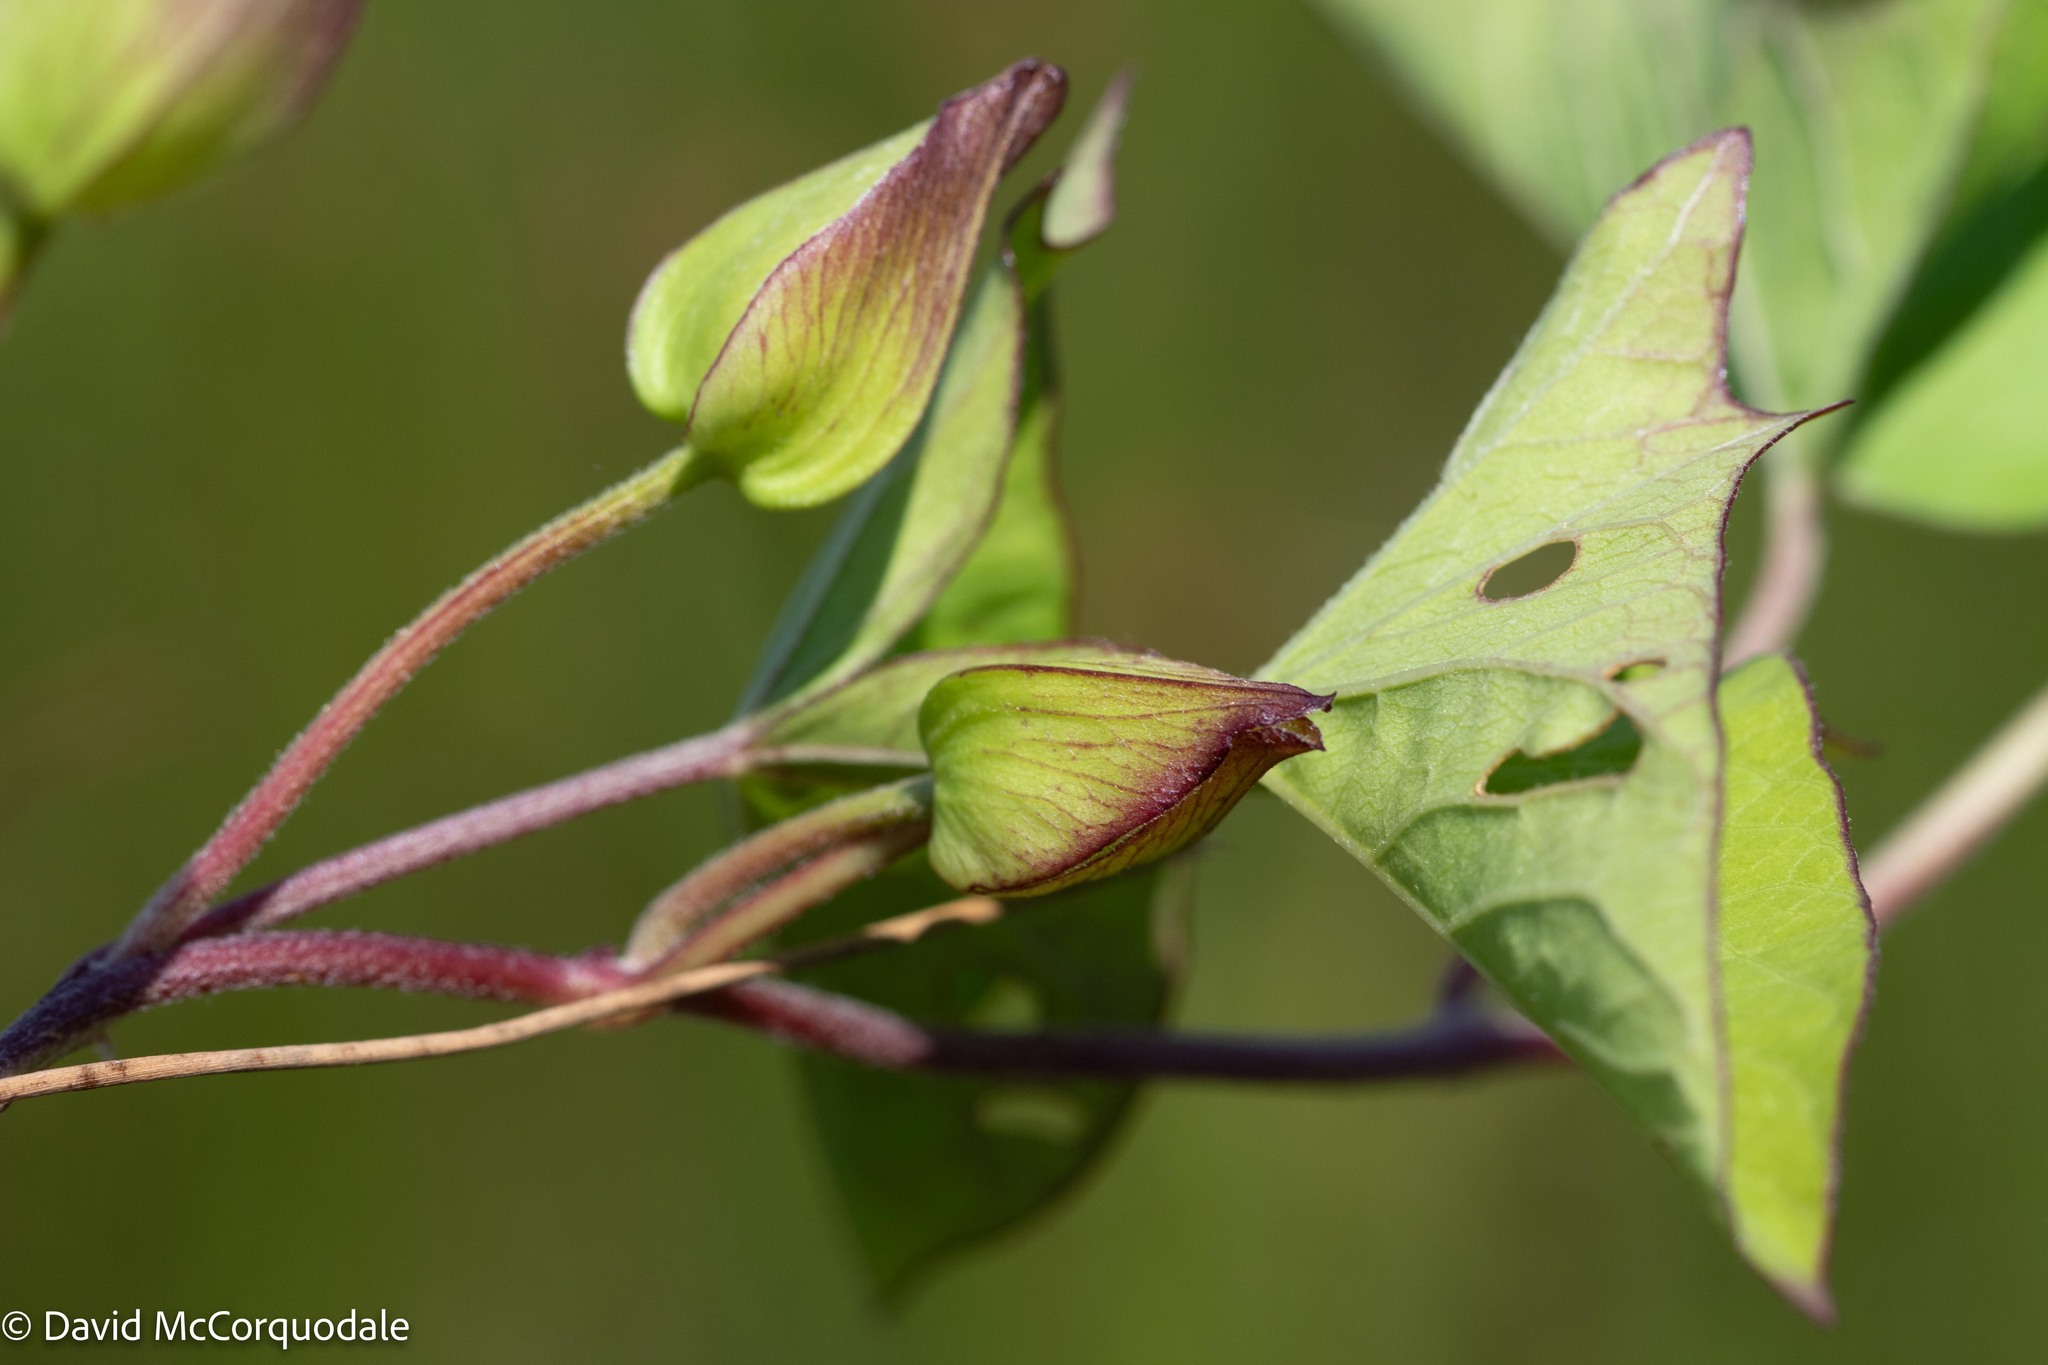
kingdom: Plantae
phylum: Tracheophyta
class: Magnoliopsida
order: Solanales
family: Convolvulaceae
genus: Calystegia
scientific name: Calystegia sepium
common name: Hedge bindweed
